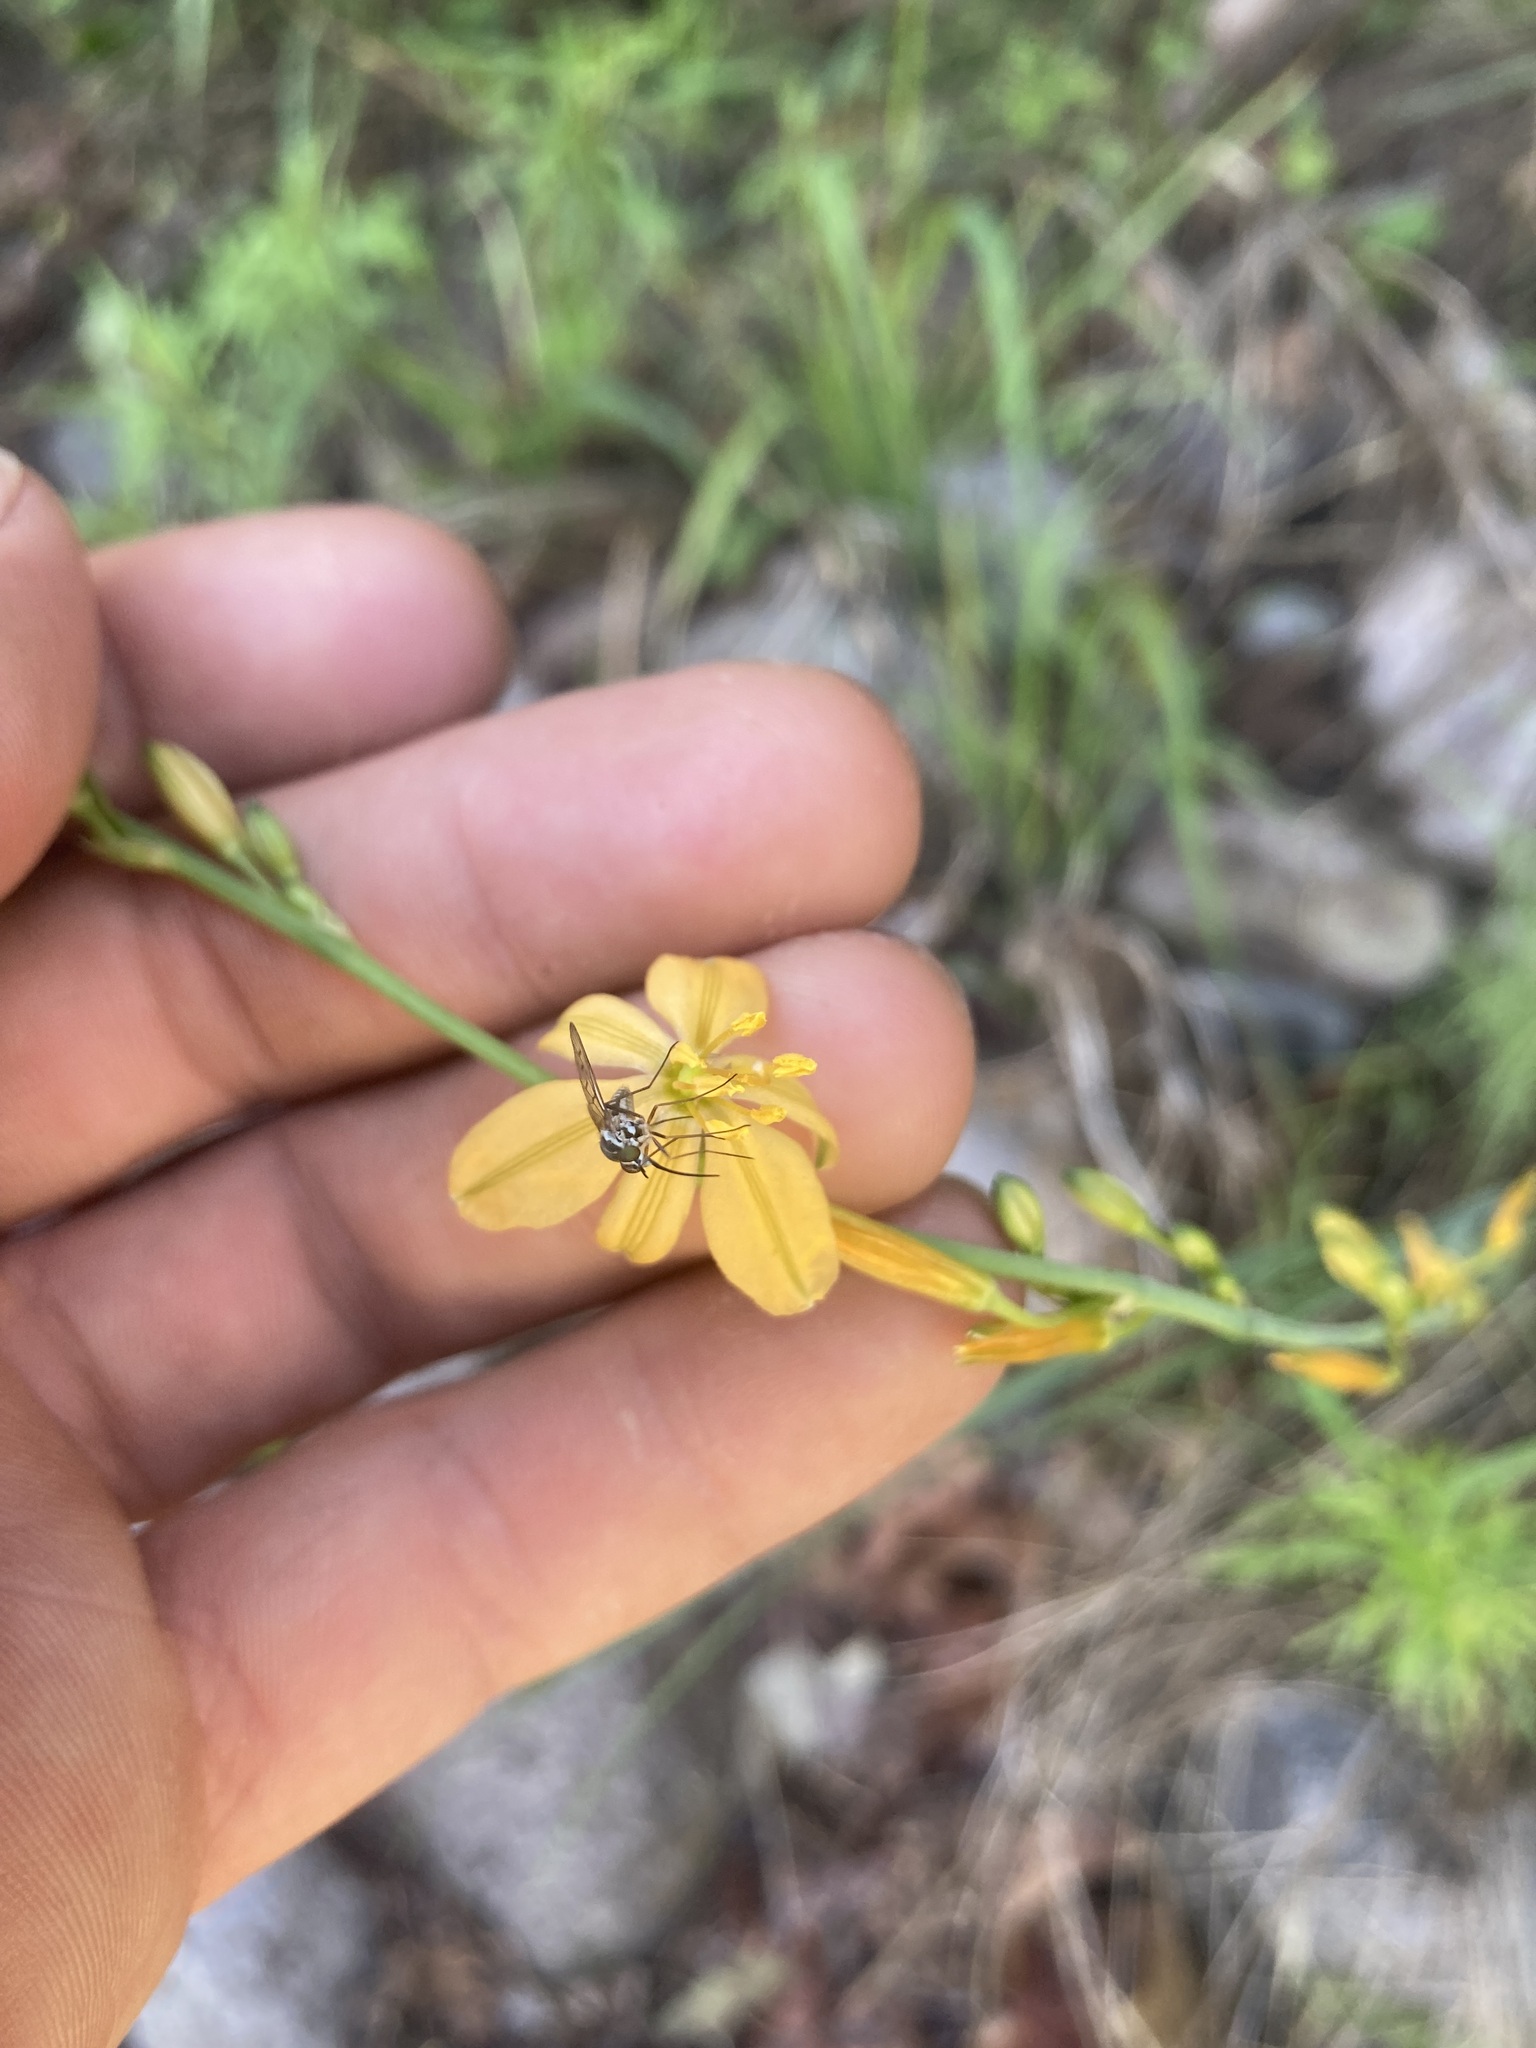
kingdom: Plantae
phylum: Tracheophyta
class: Liliopsida
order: Asparagales
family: Asparagaceae
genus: Echeandia
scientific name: Echeandia flavescens
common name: Amberlily
